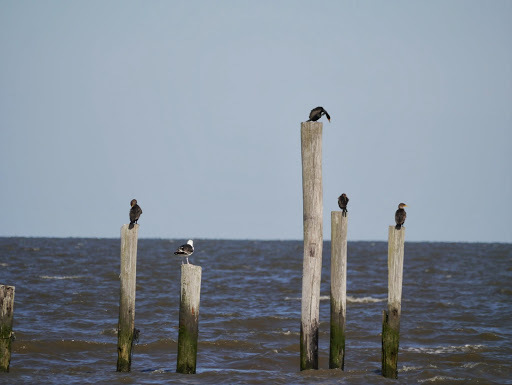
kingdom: Animalia
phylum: Chordata
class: Aves
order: Suliformes
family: Phalacrocoracidae
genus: Phalacrocorax
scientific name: Phalacrocorax auritus
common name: Double-crested cormorant
